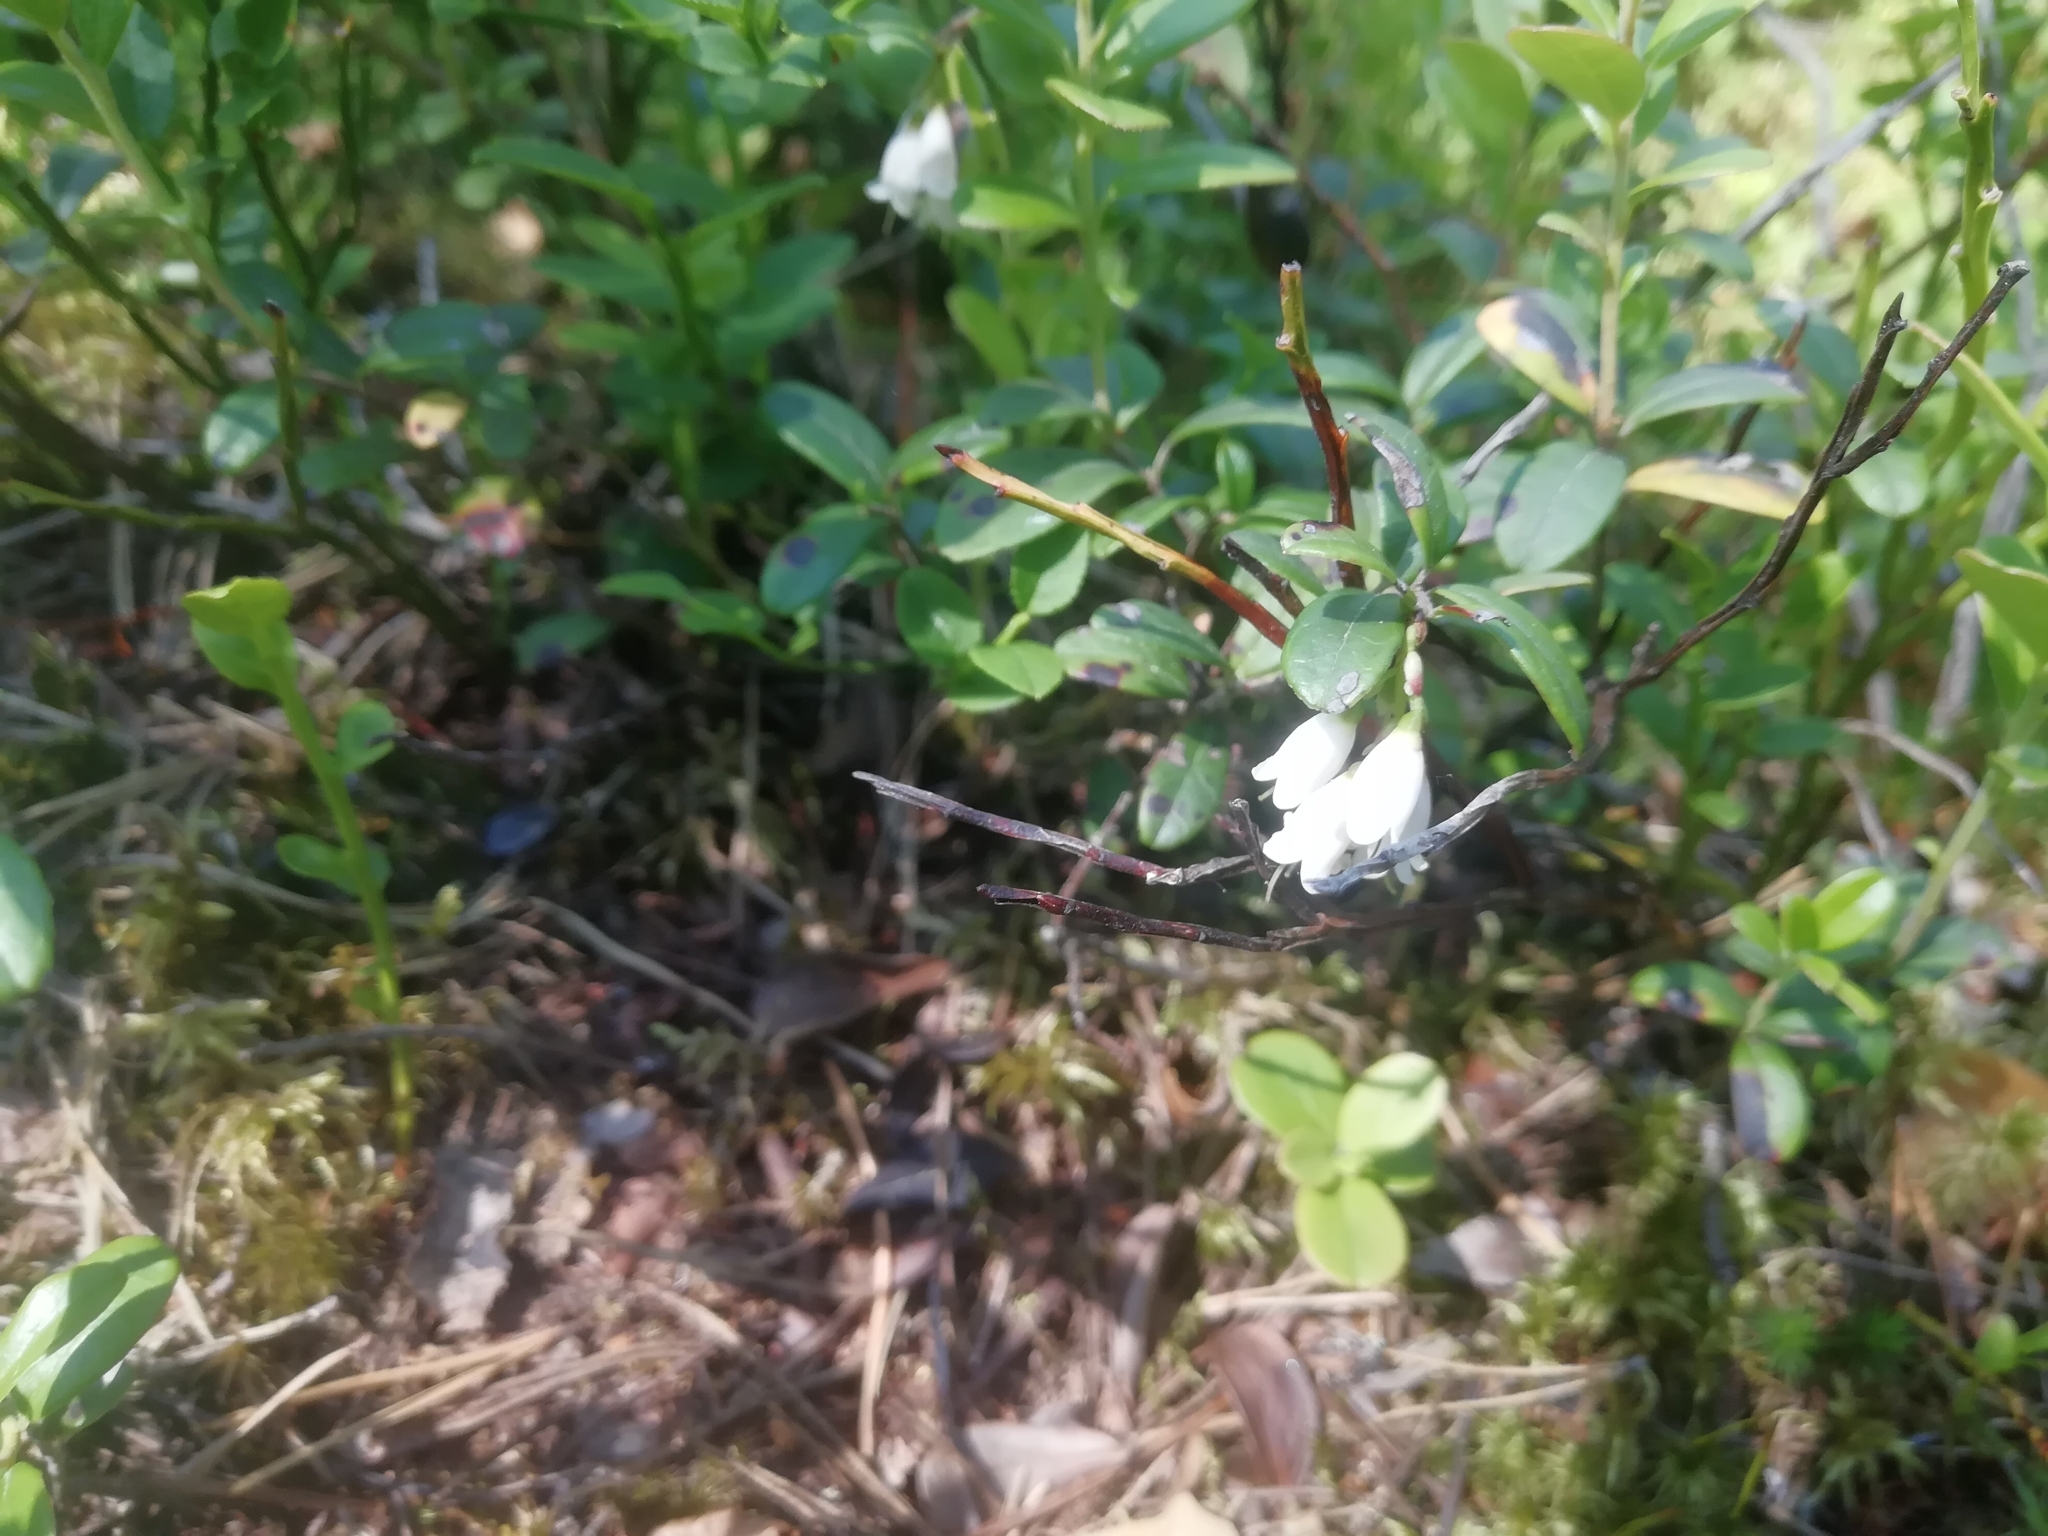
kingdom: Plantae
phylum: Tracheophyta
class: Magnoliopsida
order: Ericales
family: Ericaceae
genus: Vaccinium
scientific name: Vaccinium vitis-idaea
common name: Cowberry
